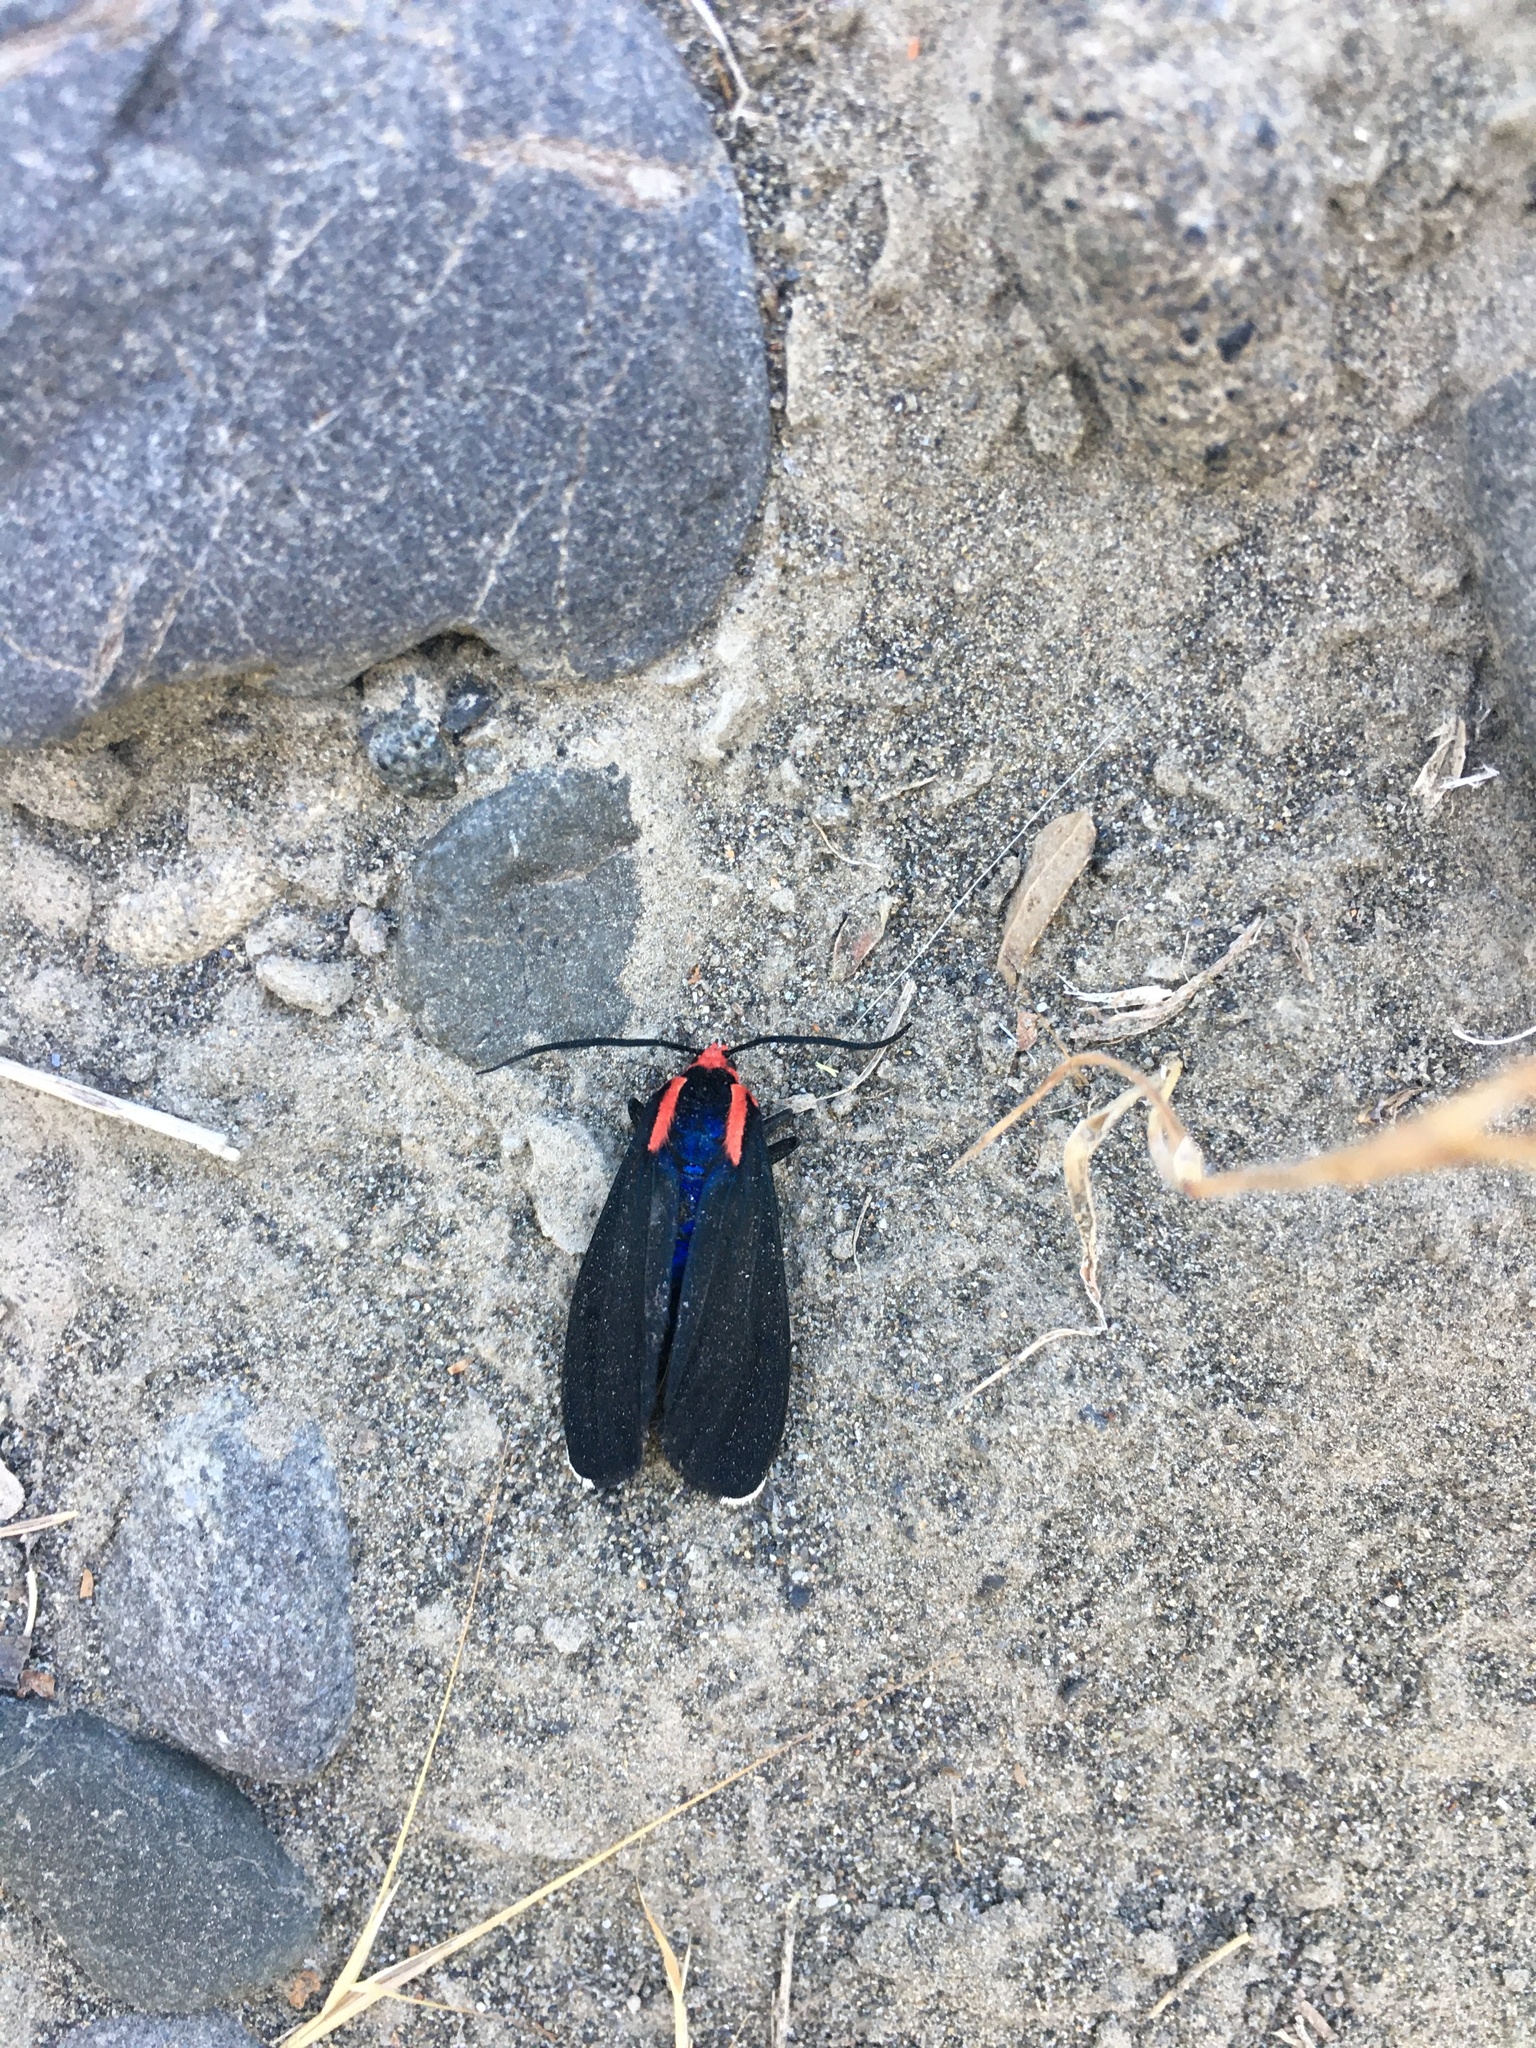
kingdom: Animalia
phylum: Arthropoda
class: Insecta
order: Lepidoptera
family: Erebidae
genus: Ctenucha
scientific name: Ctenucha rubroscapus
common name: Red-shouldered ctenucha
